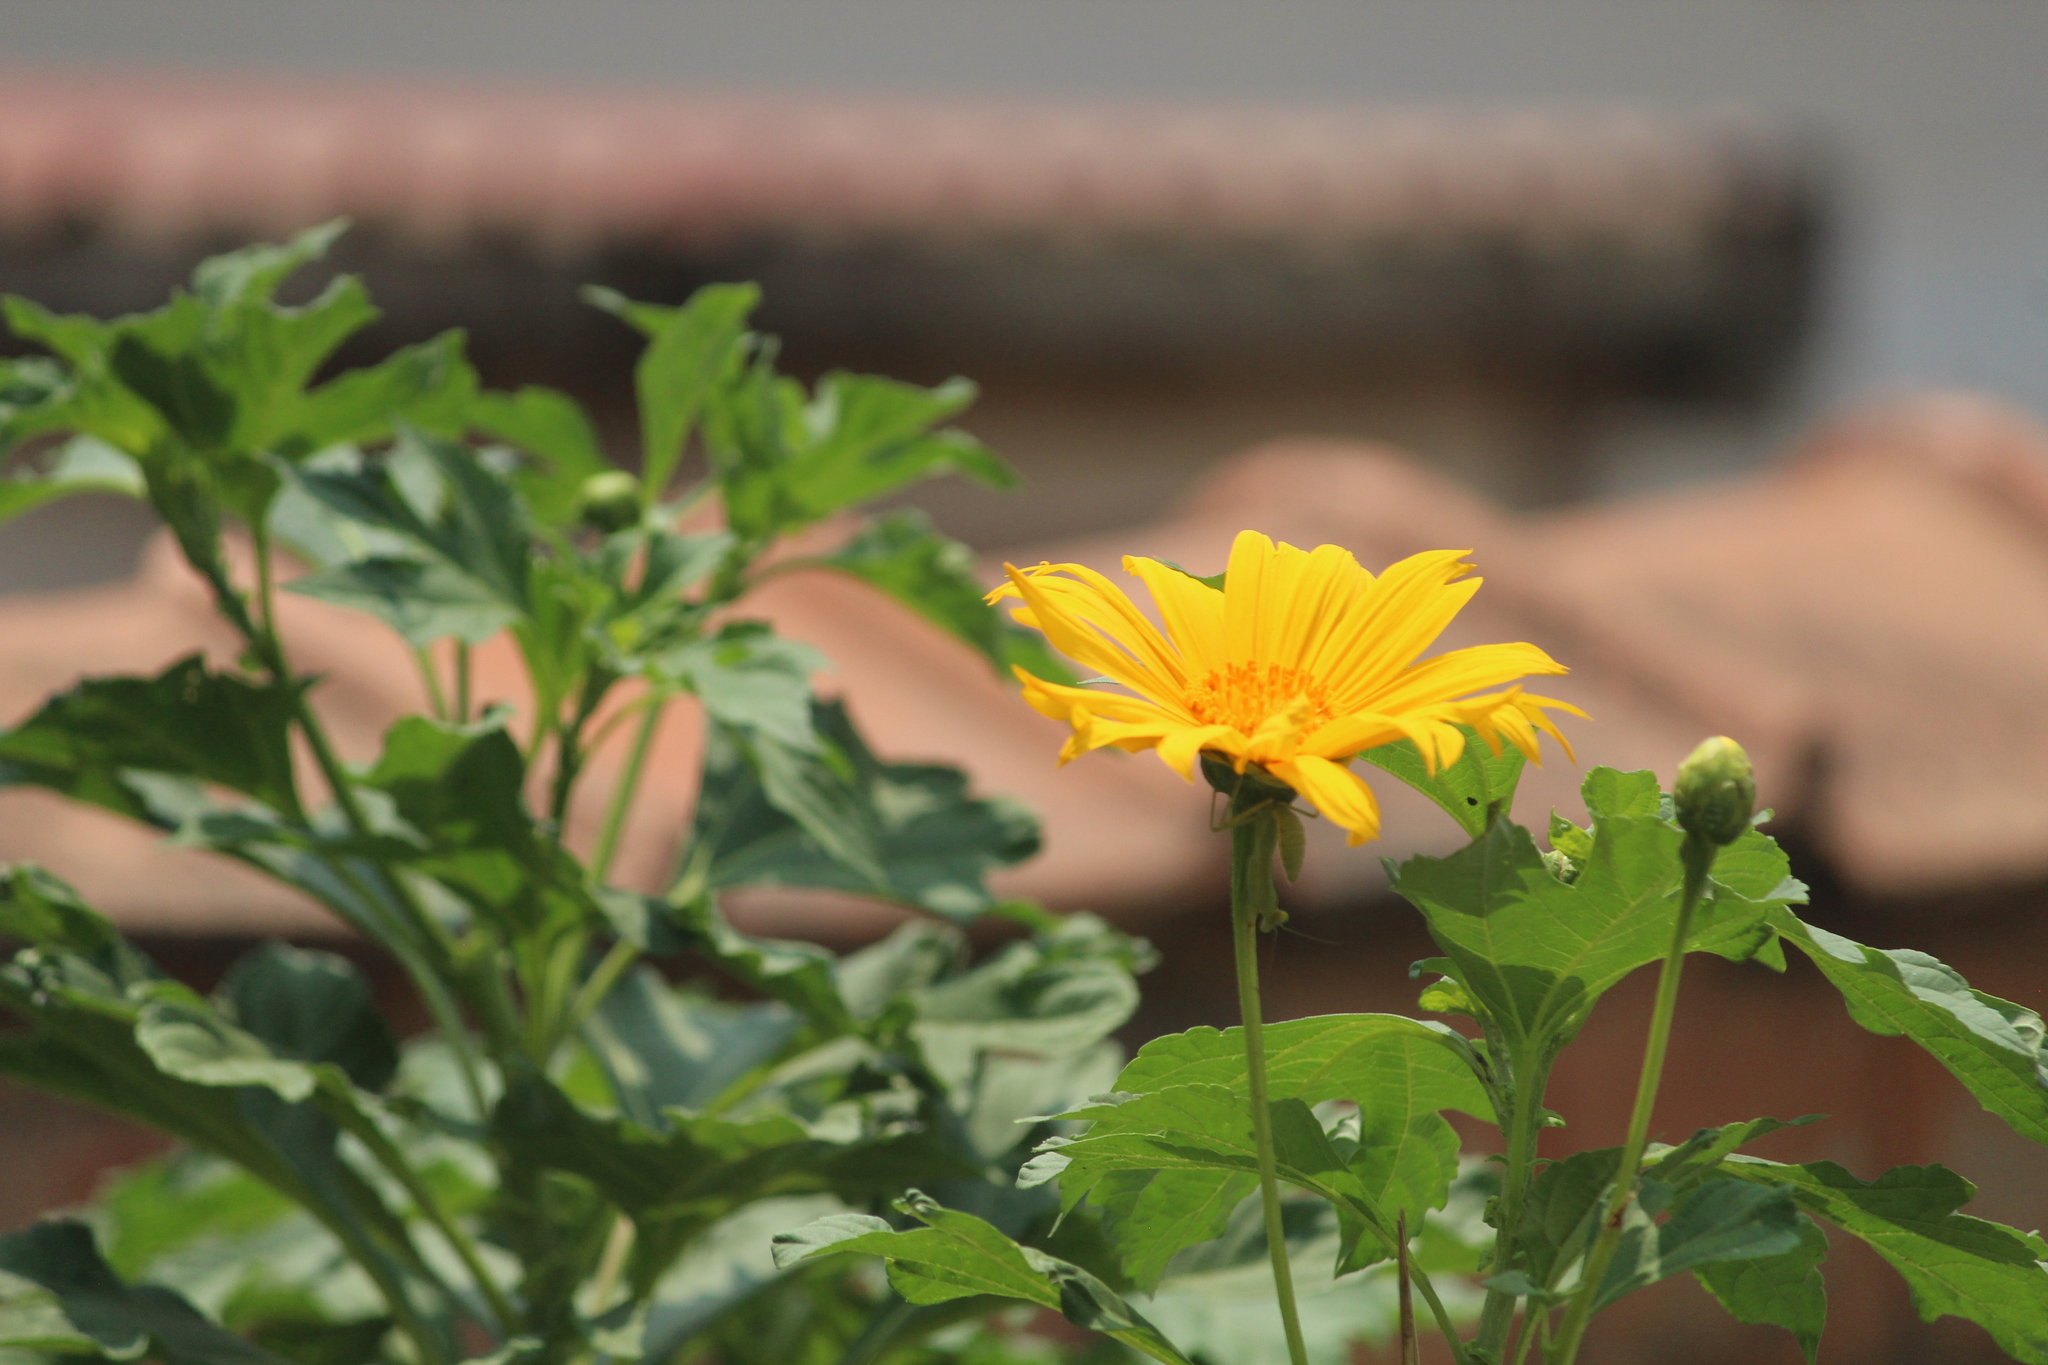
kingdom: Plantae
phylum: Tracheophyta
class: Magnoliopsida
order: Asterales
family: Asteraceae
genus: Tithonia
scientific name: Tithonia diversifolia
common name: Tree marigold
